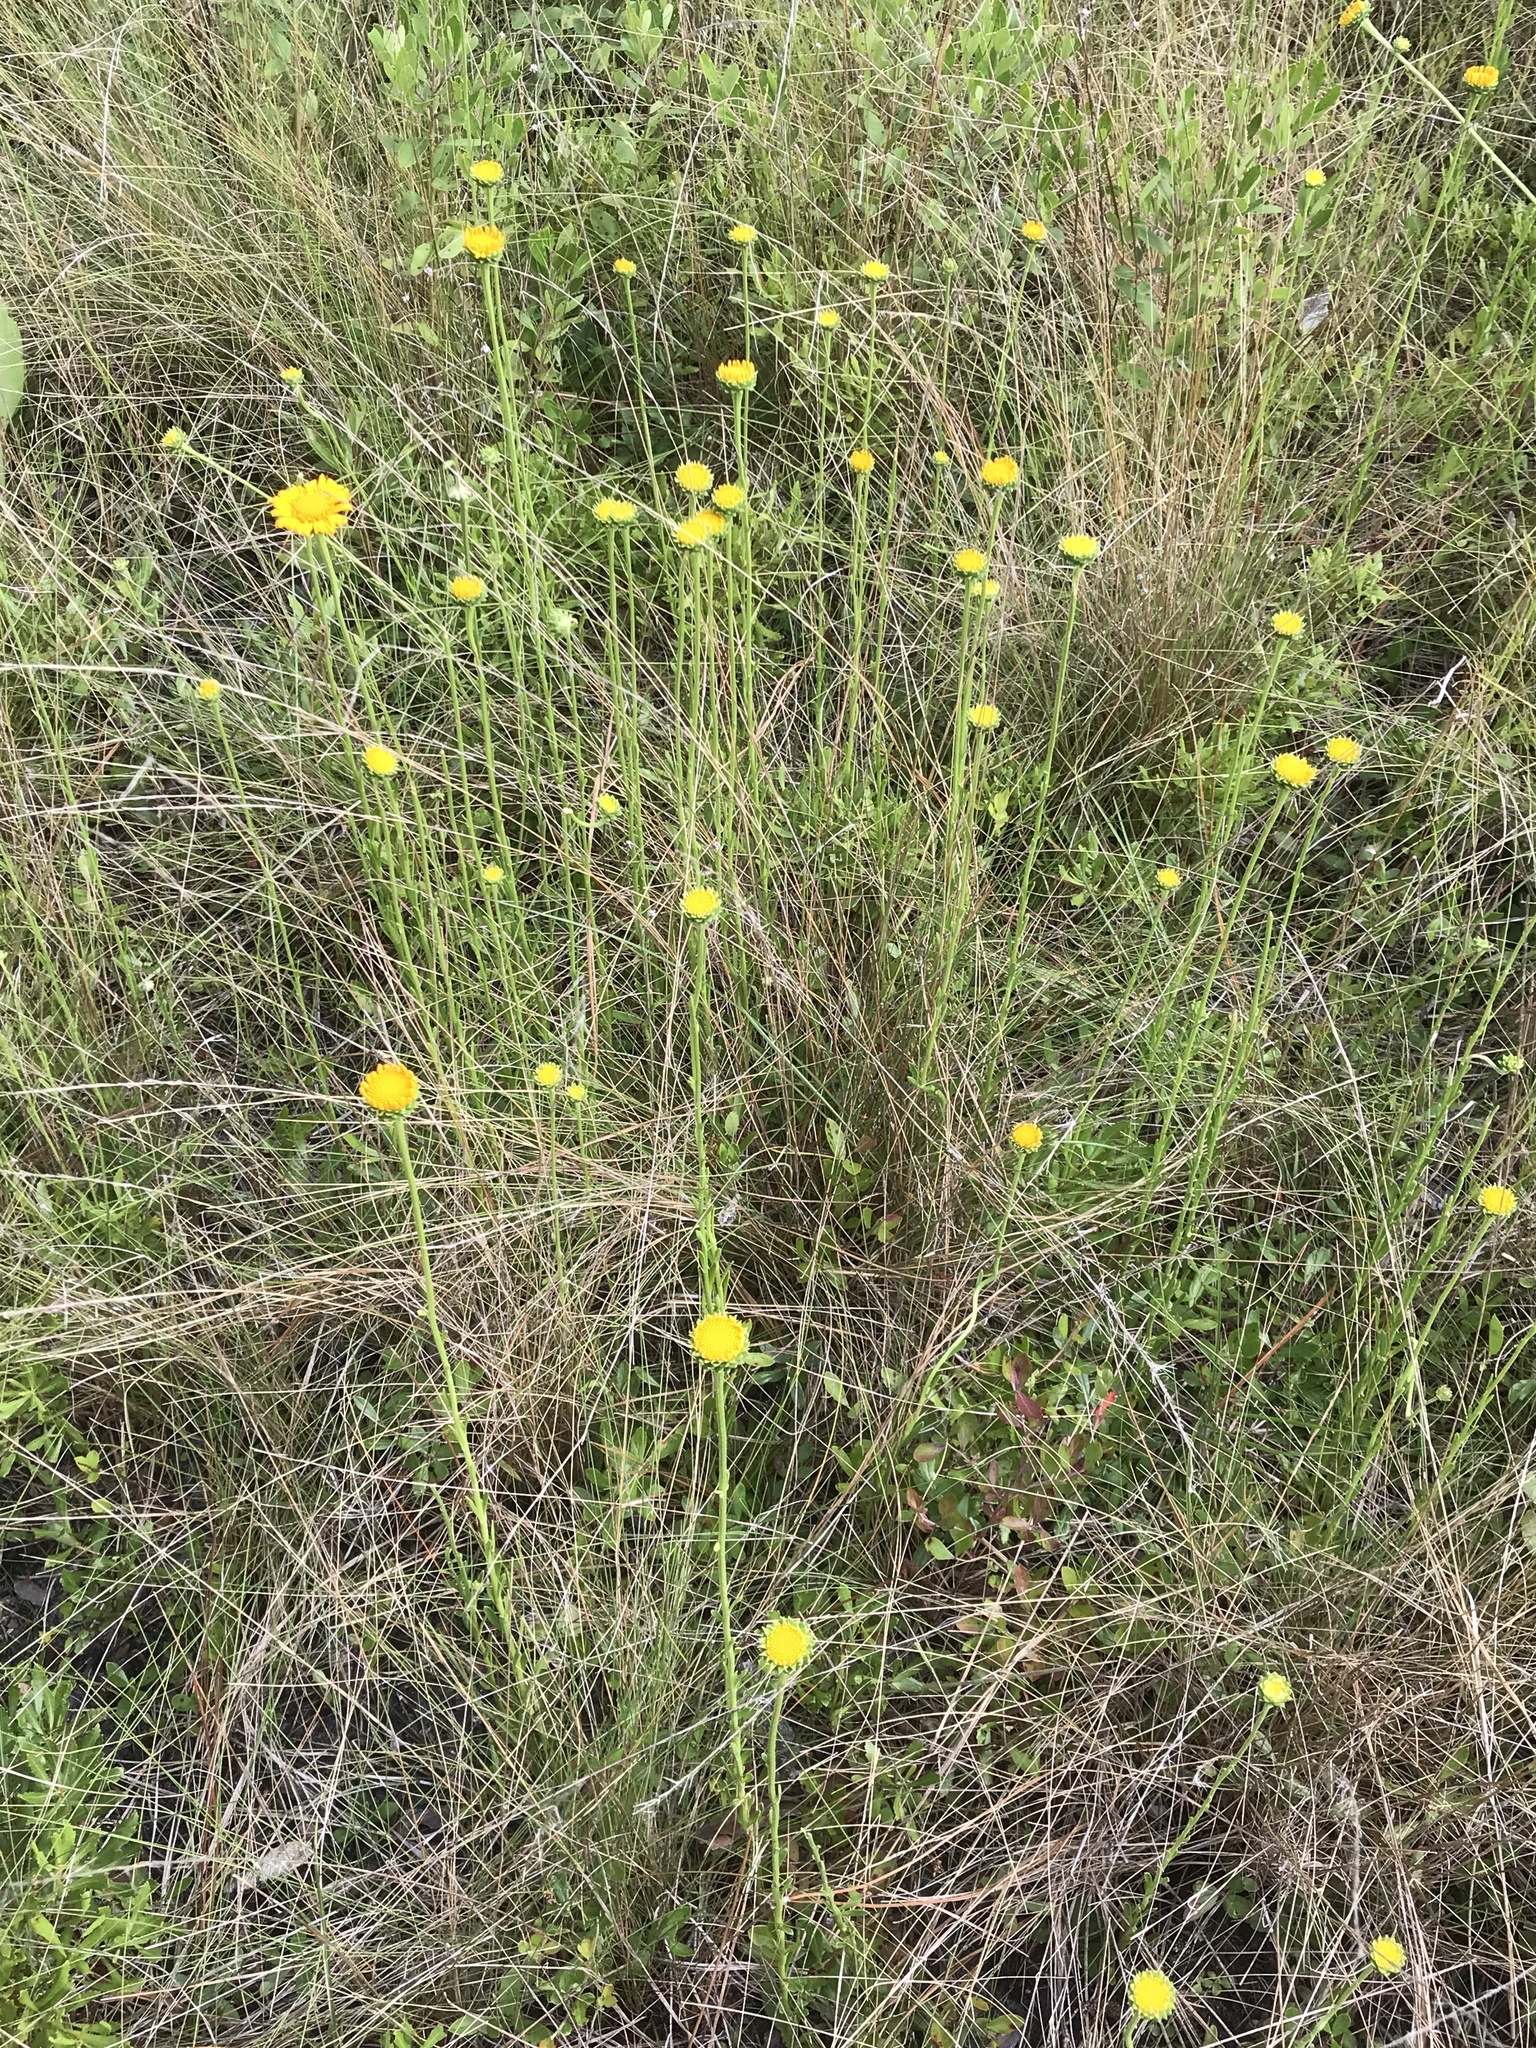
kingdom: Plantae
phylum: Tracheophyta
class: Magnoliopsida
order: Asterales
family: Asteraceae
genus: Balduina
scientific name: Balduina uniflora
